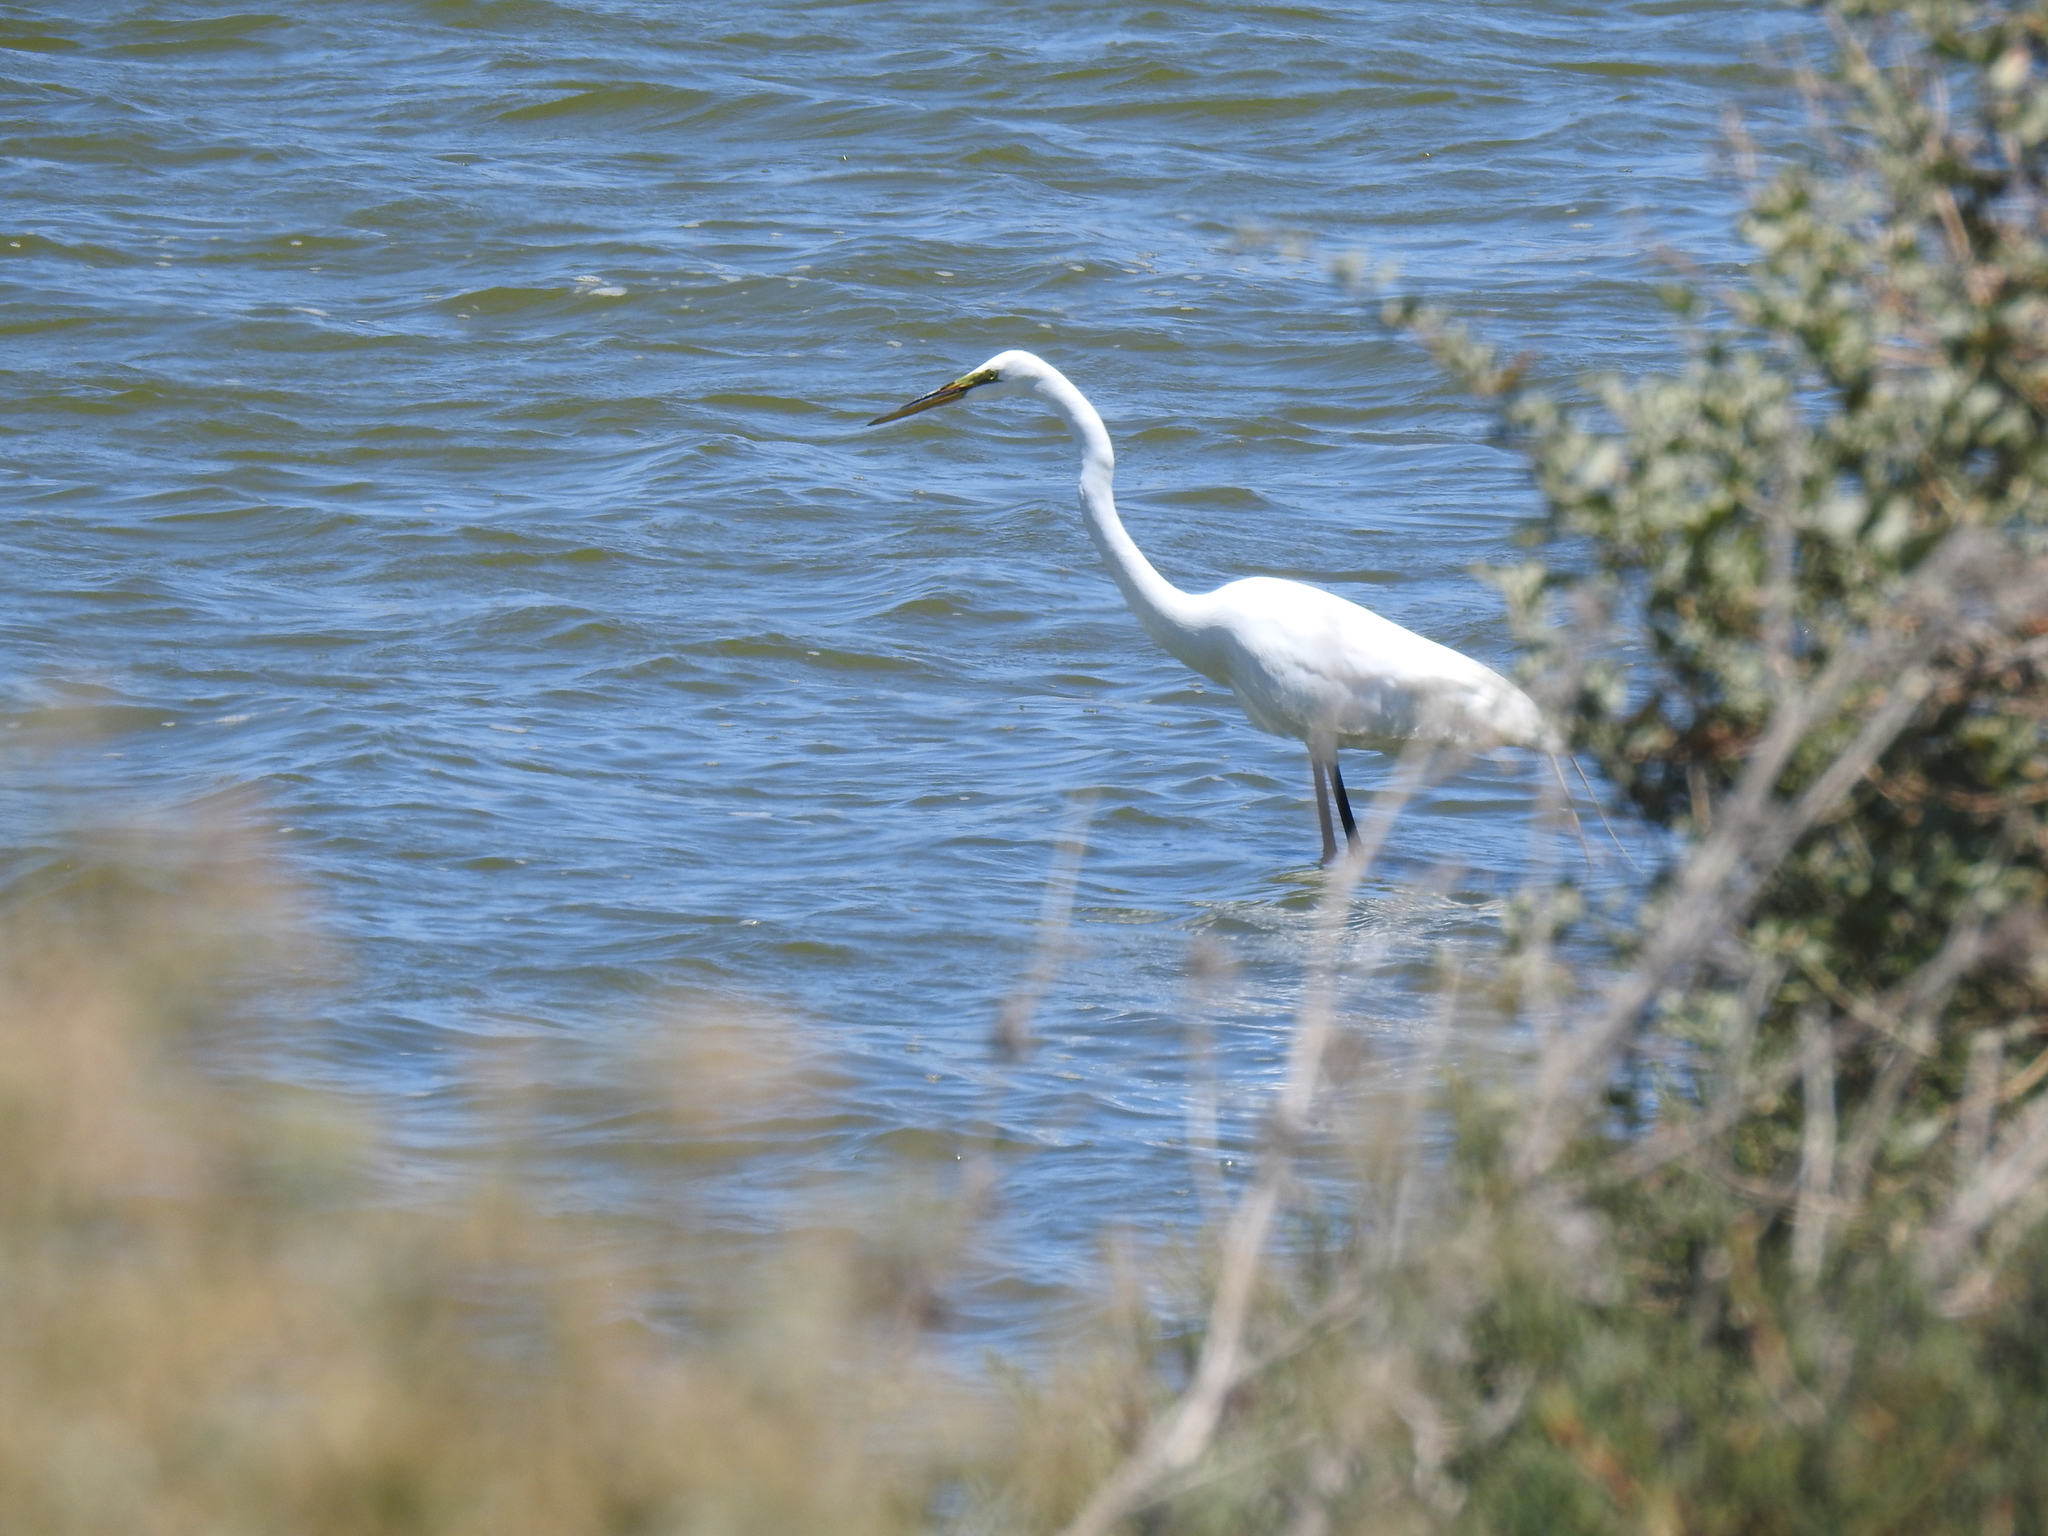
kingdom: Animalia
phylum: Chordata
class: Aves
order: Pelecaniformes
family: Ardeidae
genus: Ardea
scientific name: Ardea alba
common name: Great egret
